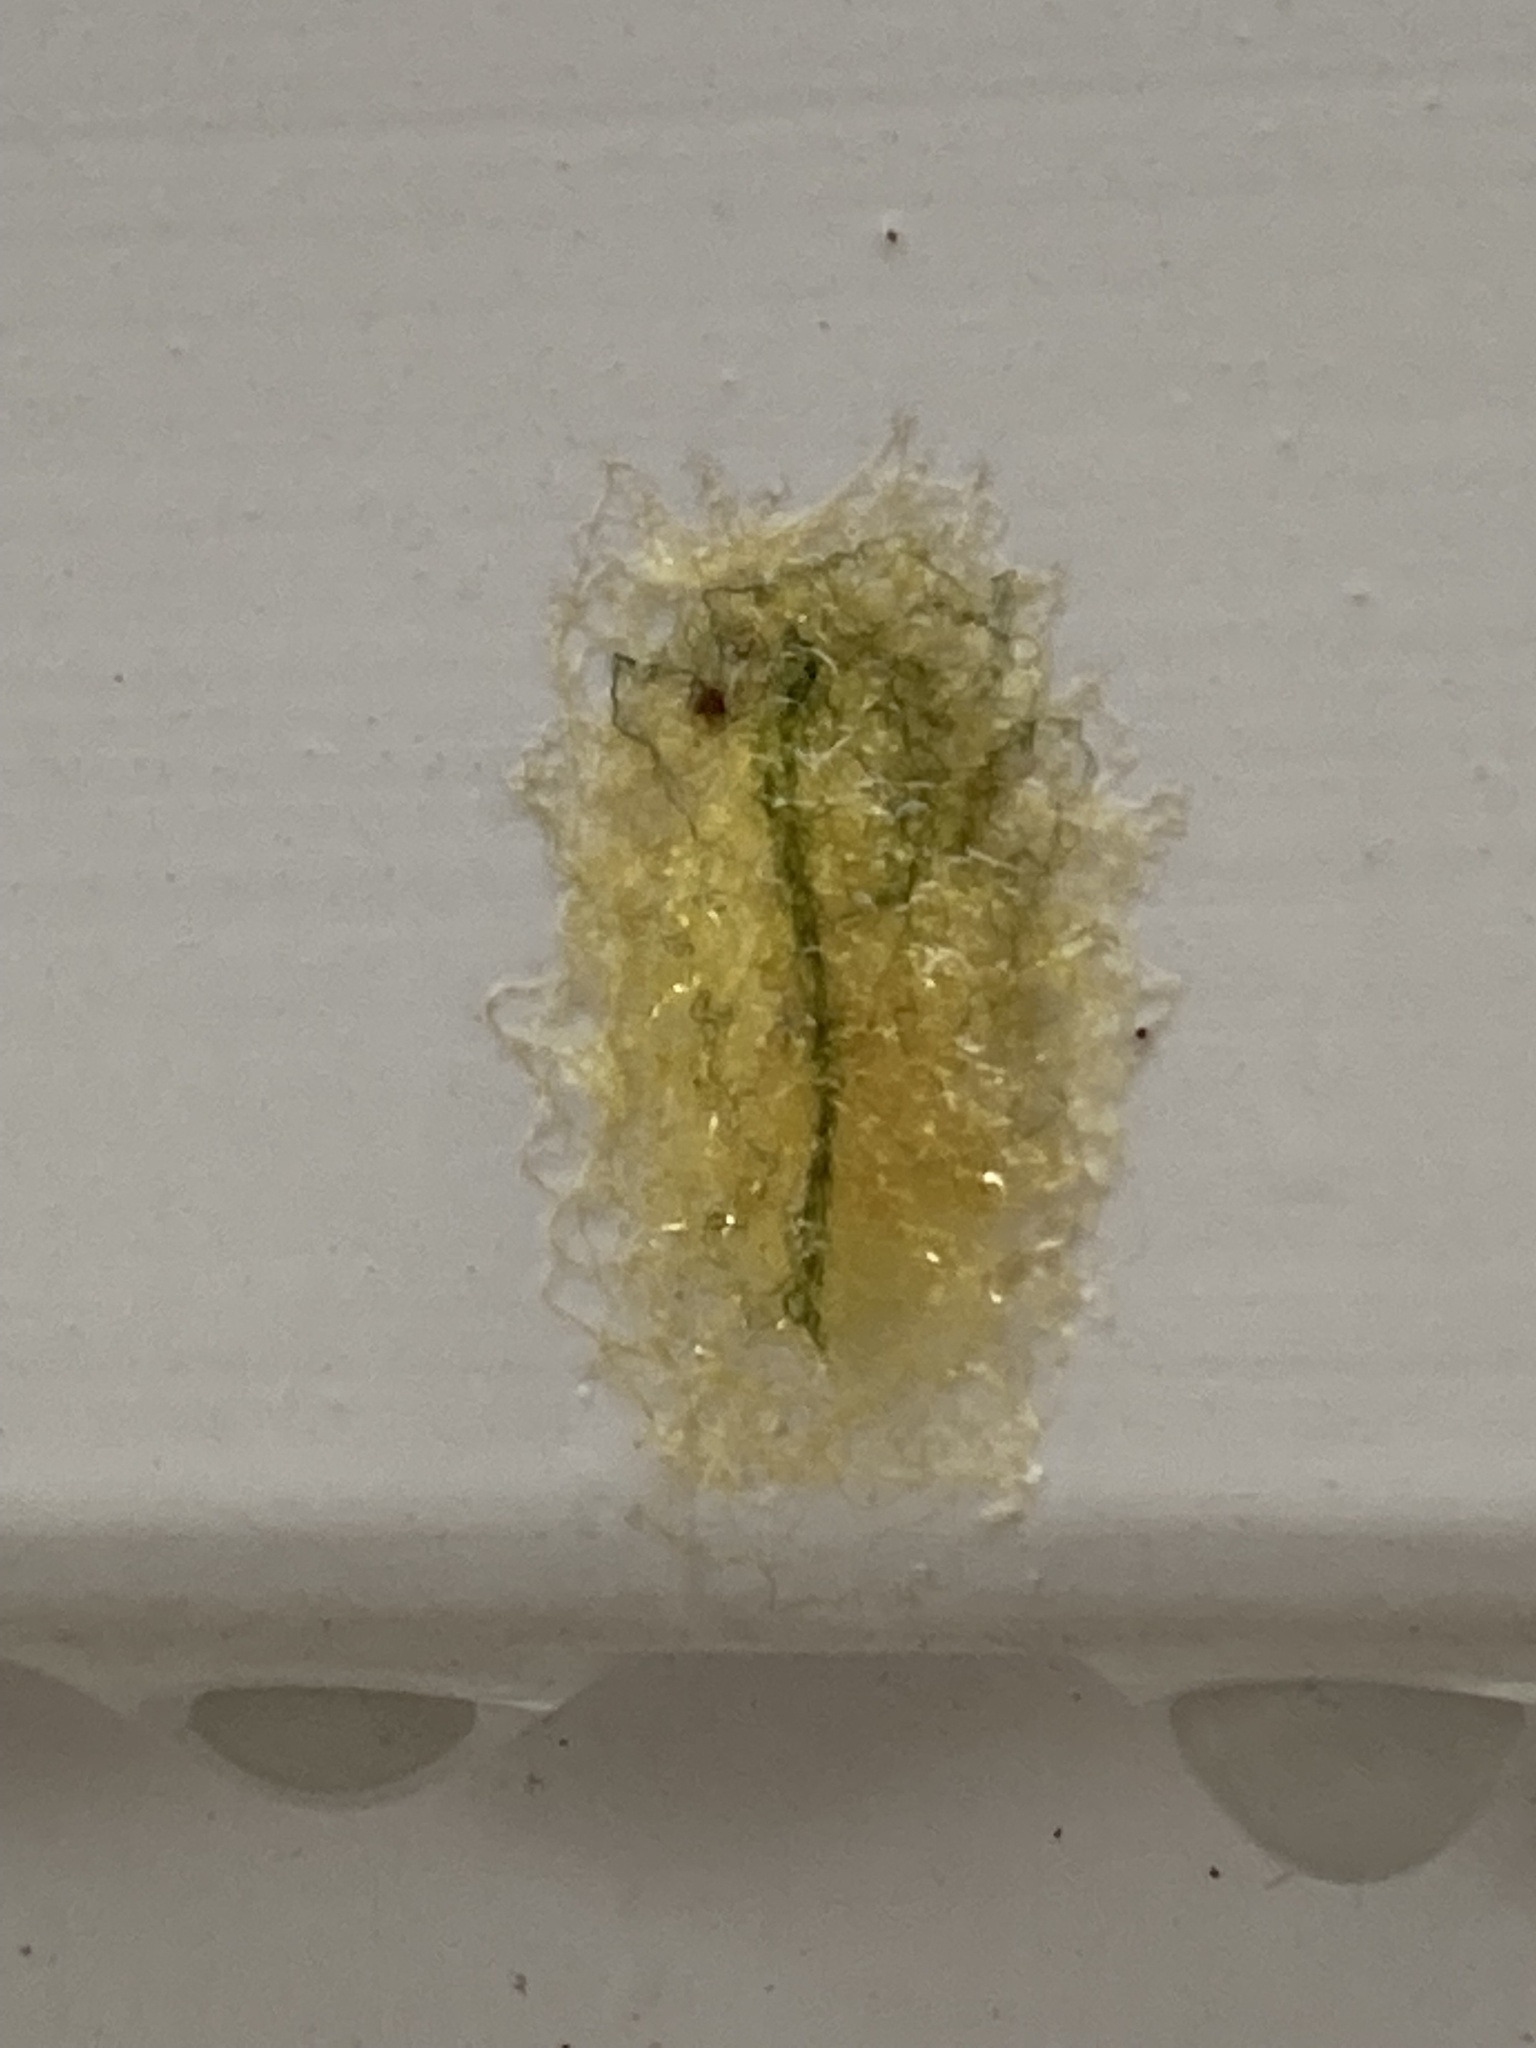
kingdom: Animalia
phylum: Arthropoda
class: Arachnida
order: Araneae
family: Araneidae
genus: Gasteracantha
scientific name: Gasteracantha cancriformis
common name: Orb weavers
